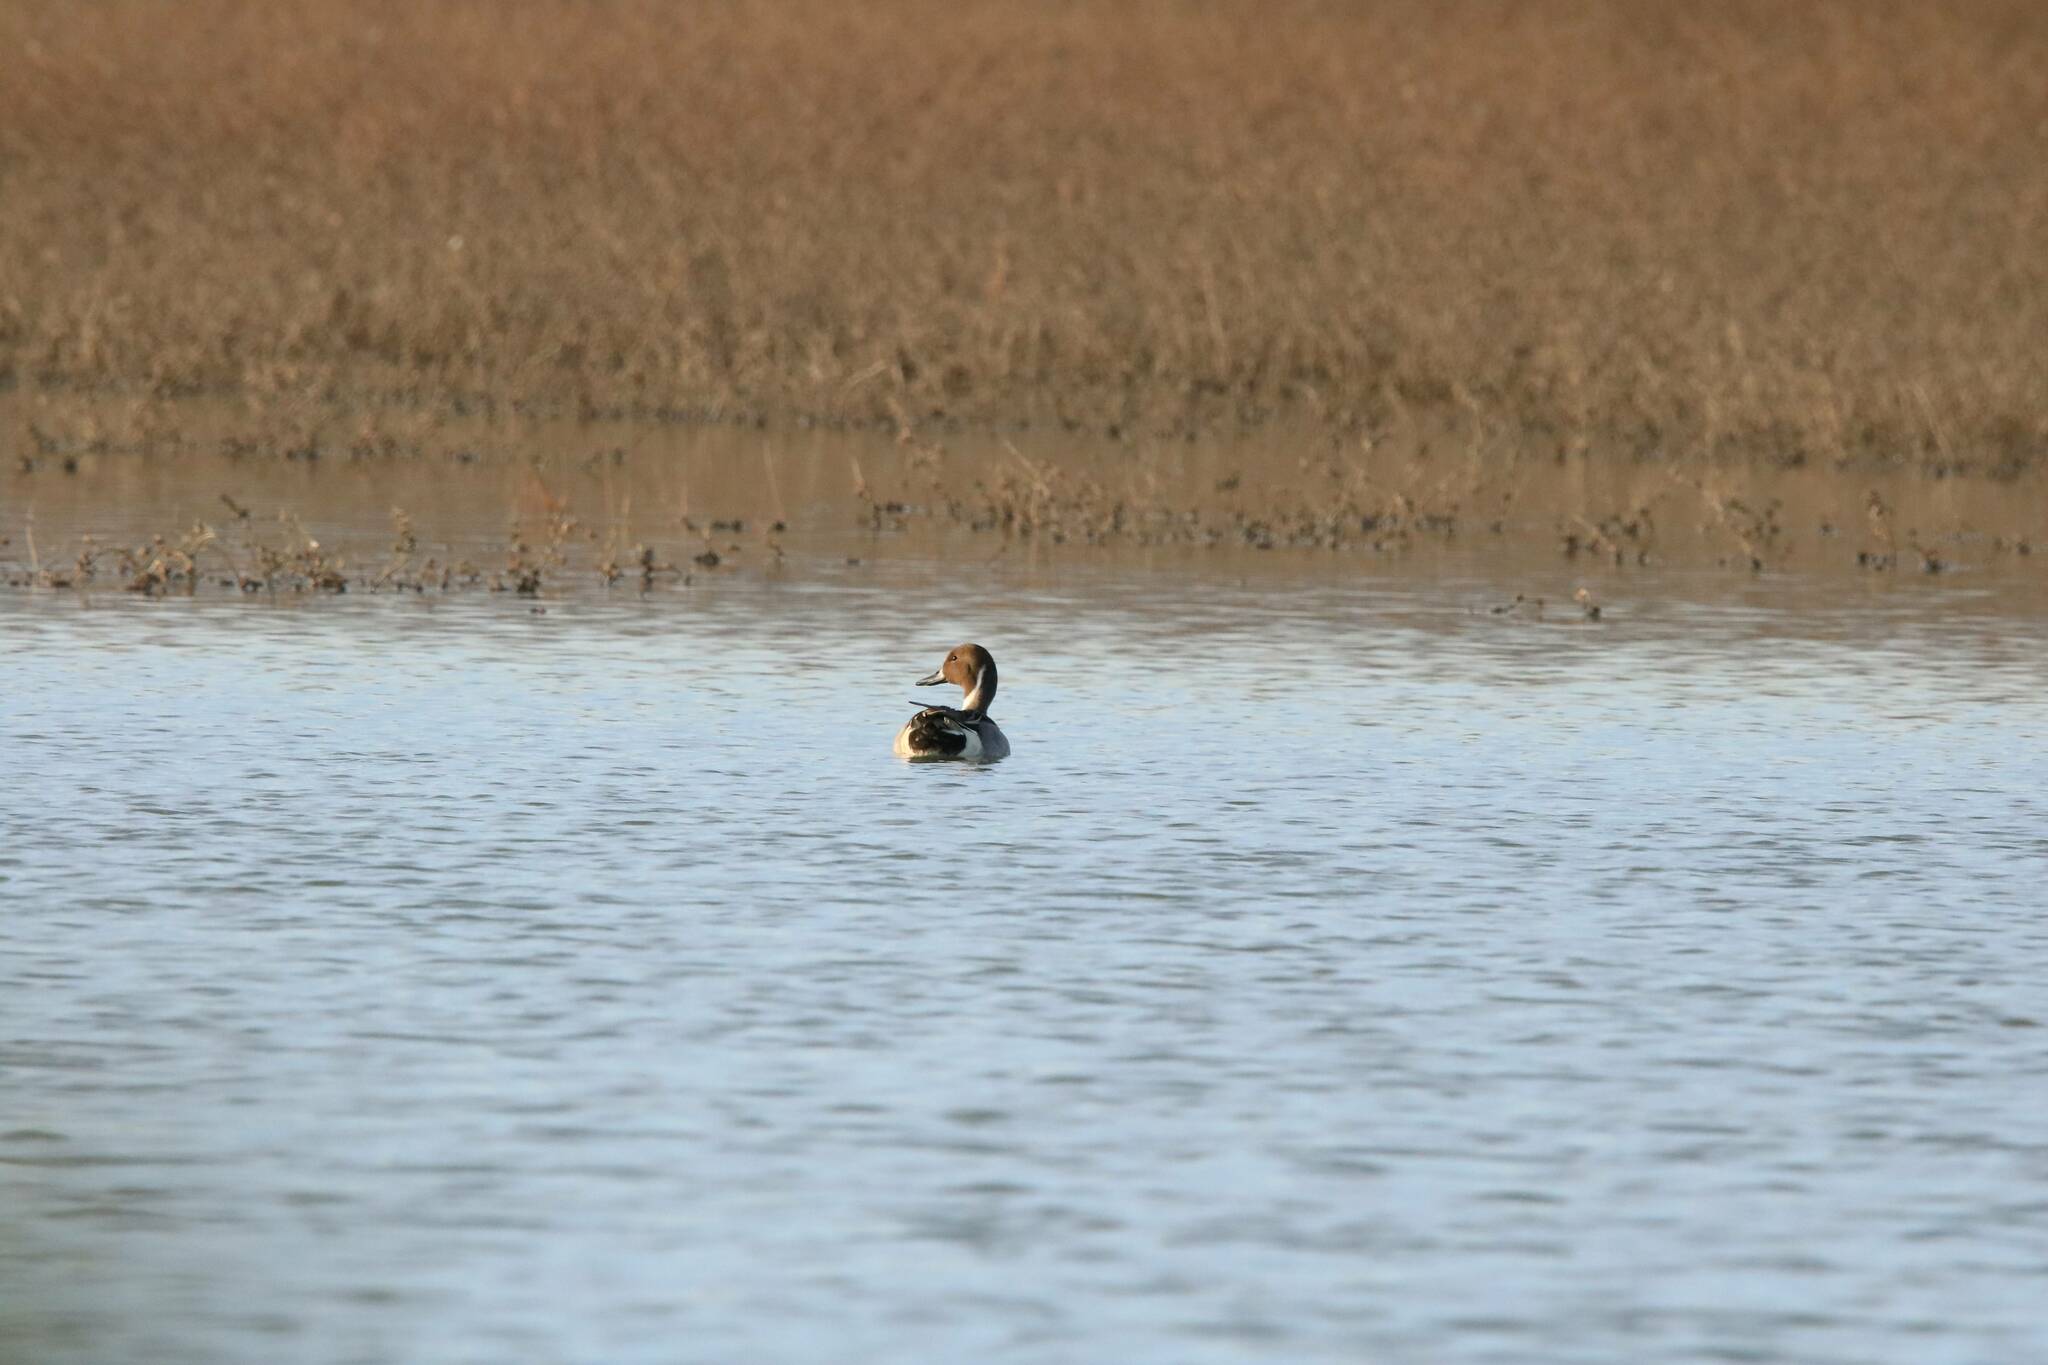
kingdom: Animalia
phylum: Chordata
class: Aves
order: Anseriformes
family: Anatidae
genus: Anas
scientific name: Anas acuta
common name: Northern pintail
